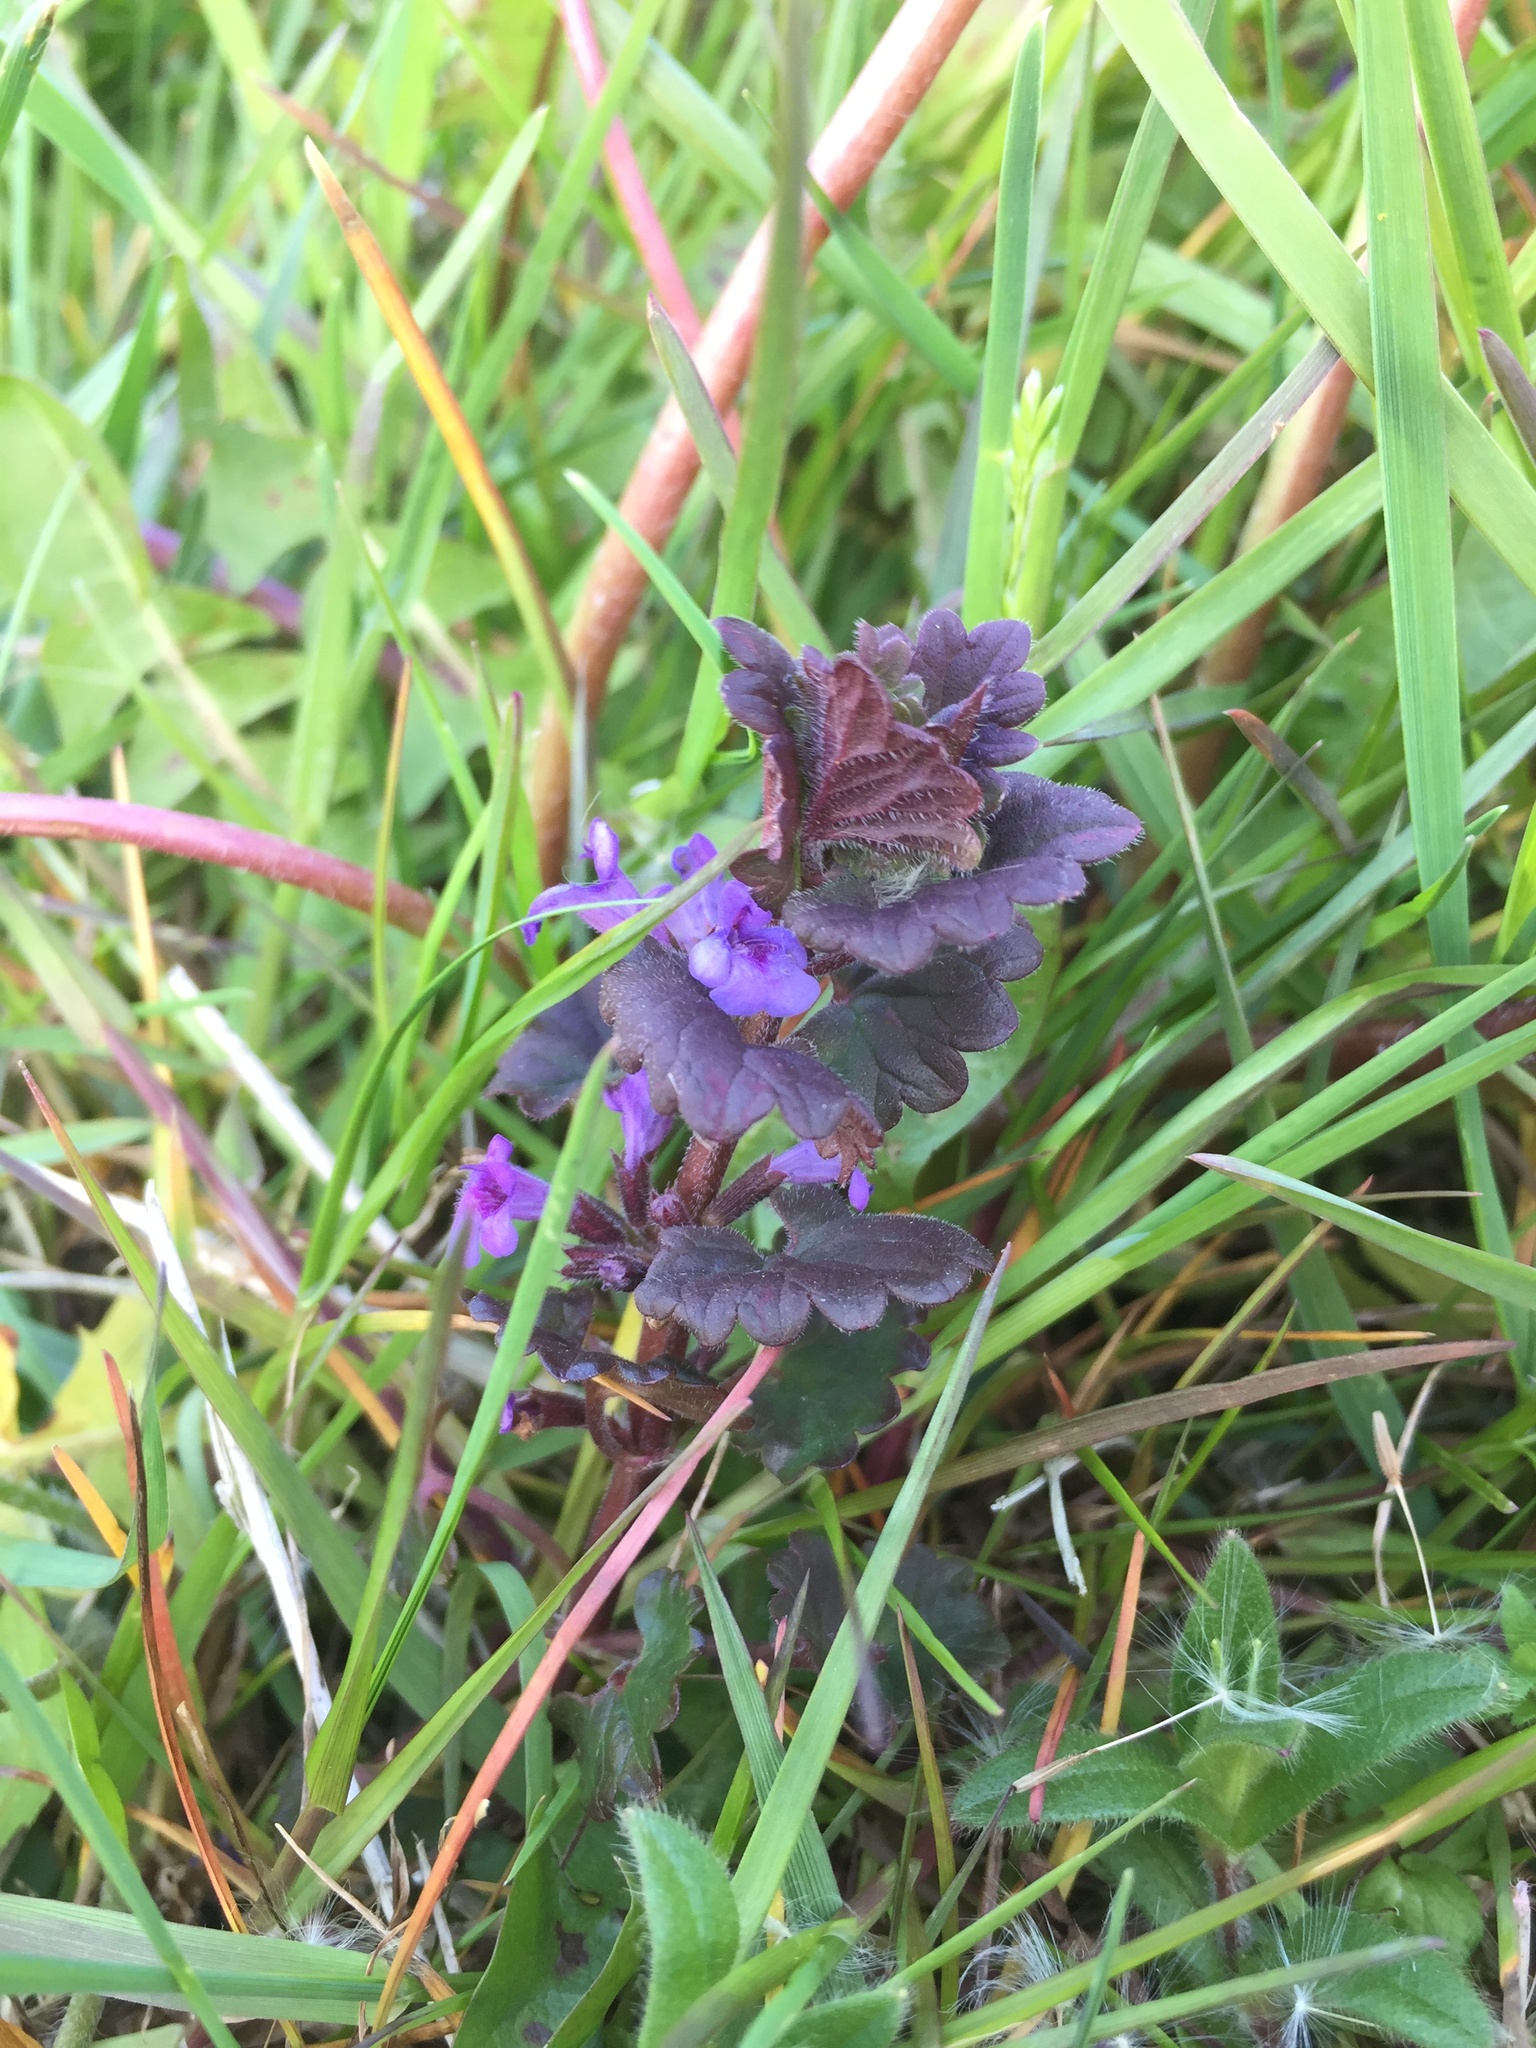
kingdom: Plantae
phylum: Tracheophyta
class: Magnoliopsida
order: Lamiales
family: Lamiaceae
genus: Glechoma
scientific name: Glechoma hederacea
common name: Ground ivy
